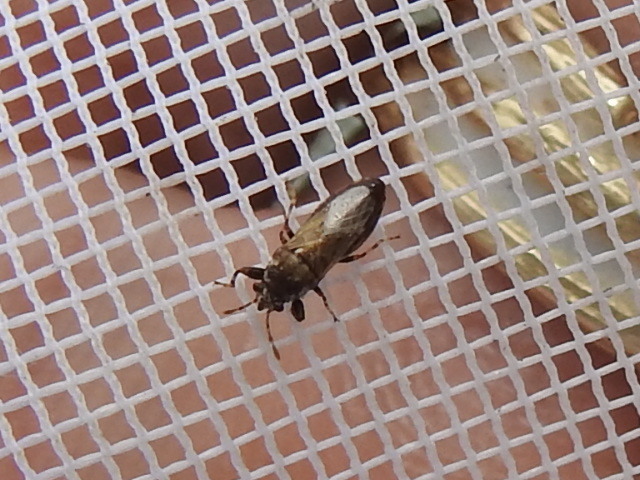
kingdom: Animalia
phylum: Arthropoda
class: Insecta
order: Hemiptera
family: Pachygronthidae
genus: Phlegyas
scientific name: Phlegyas annulicrus
